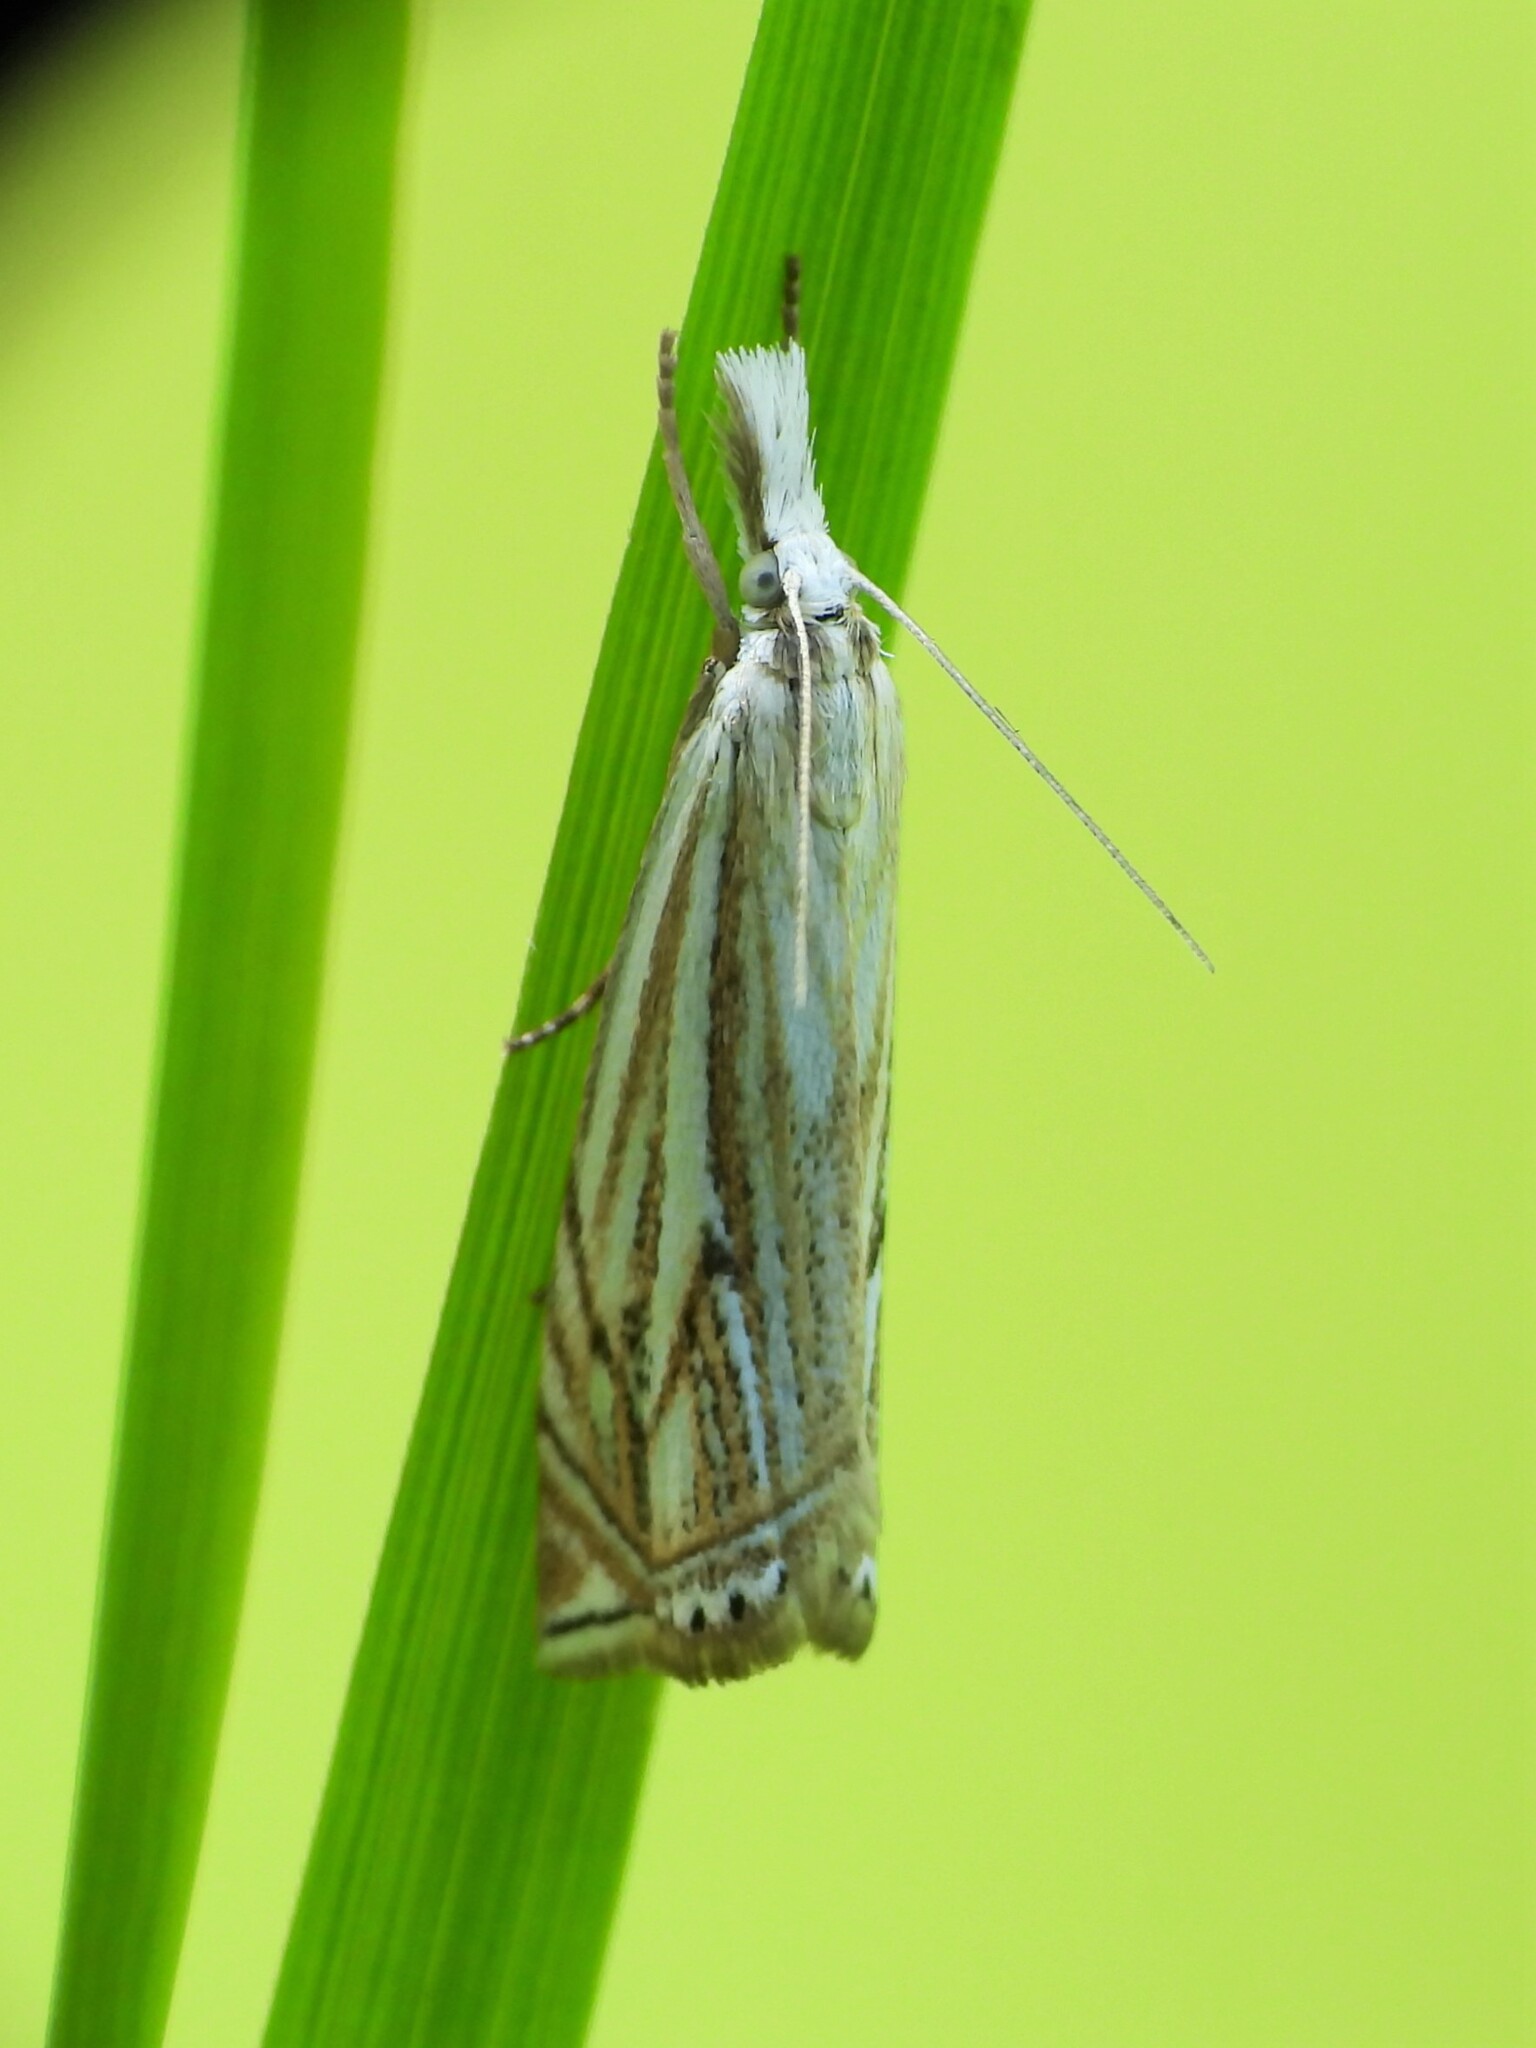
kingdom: Animalia
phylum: Arthropoda
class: Insecta
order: Lepidoptera
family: Crambidae
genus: Crambus
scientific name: Crambus nemorella
